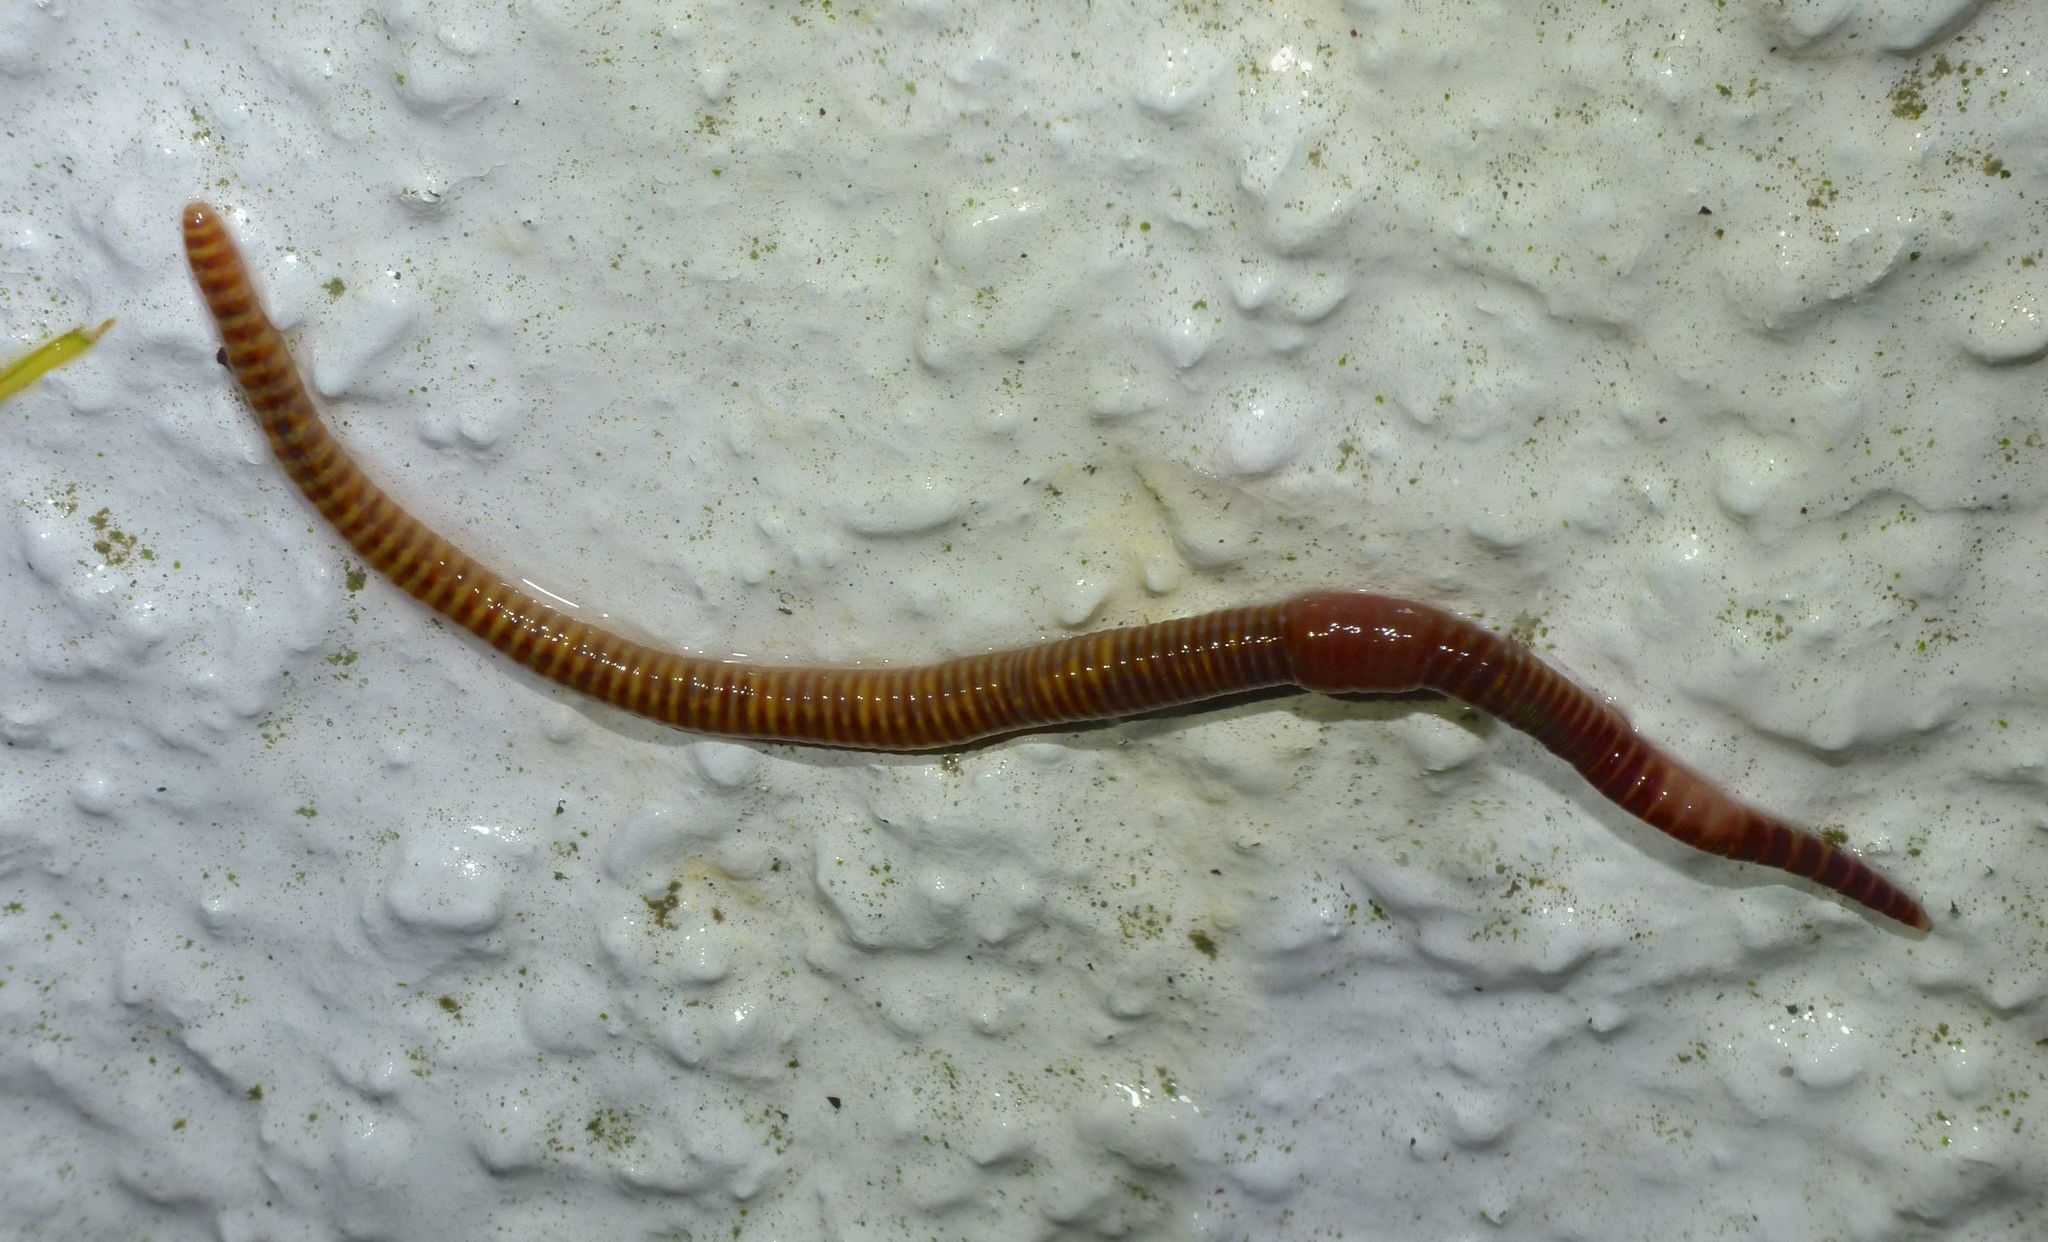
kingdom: Animalia
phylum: Annelida
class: Clitellata
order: Crassiclitellata
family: Lumbricidae
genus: Eisenia
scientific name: Eisenia fetida
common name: Red wiggler
